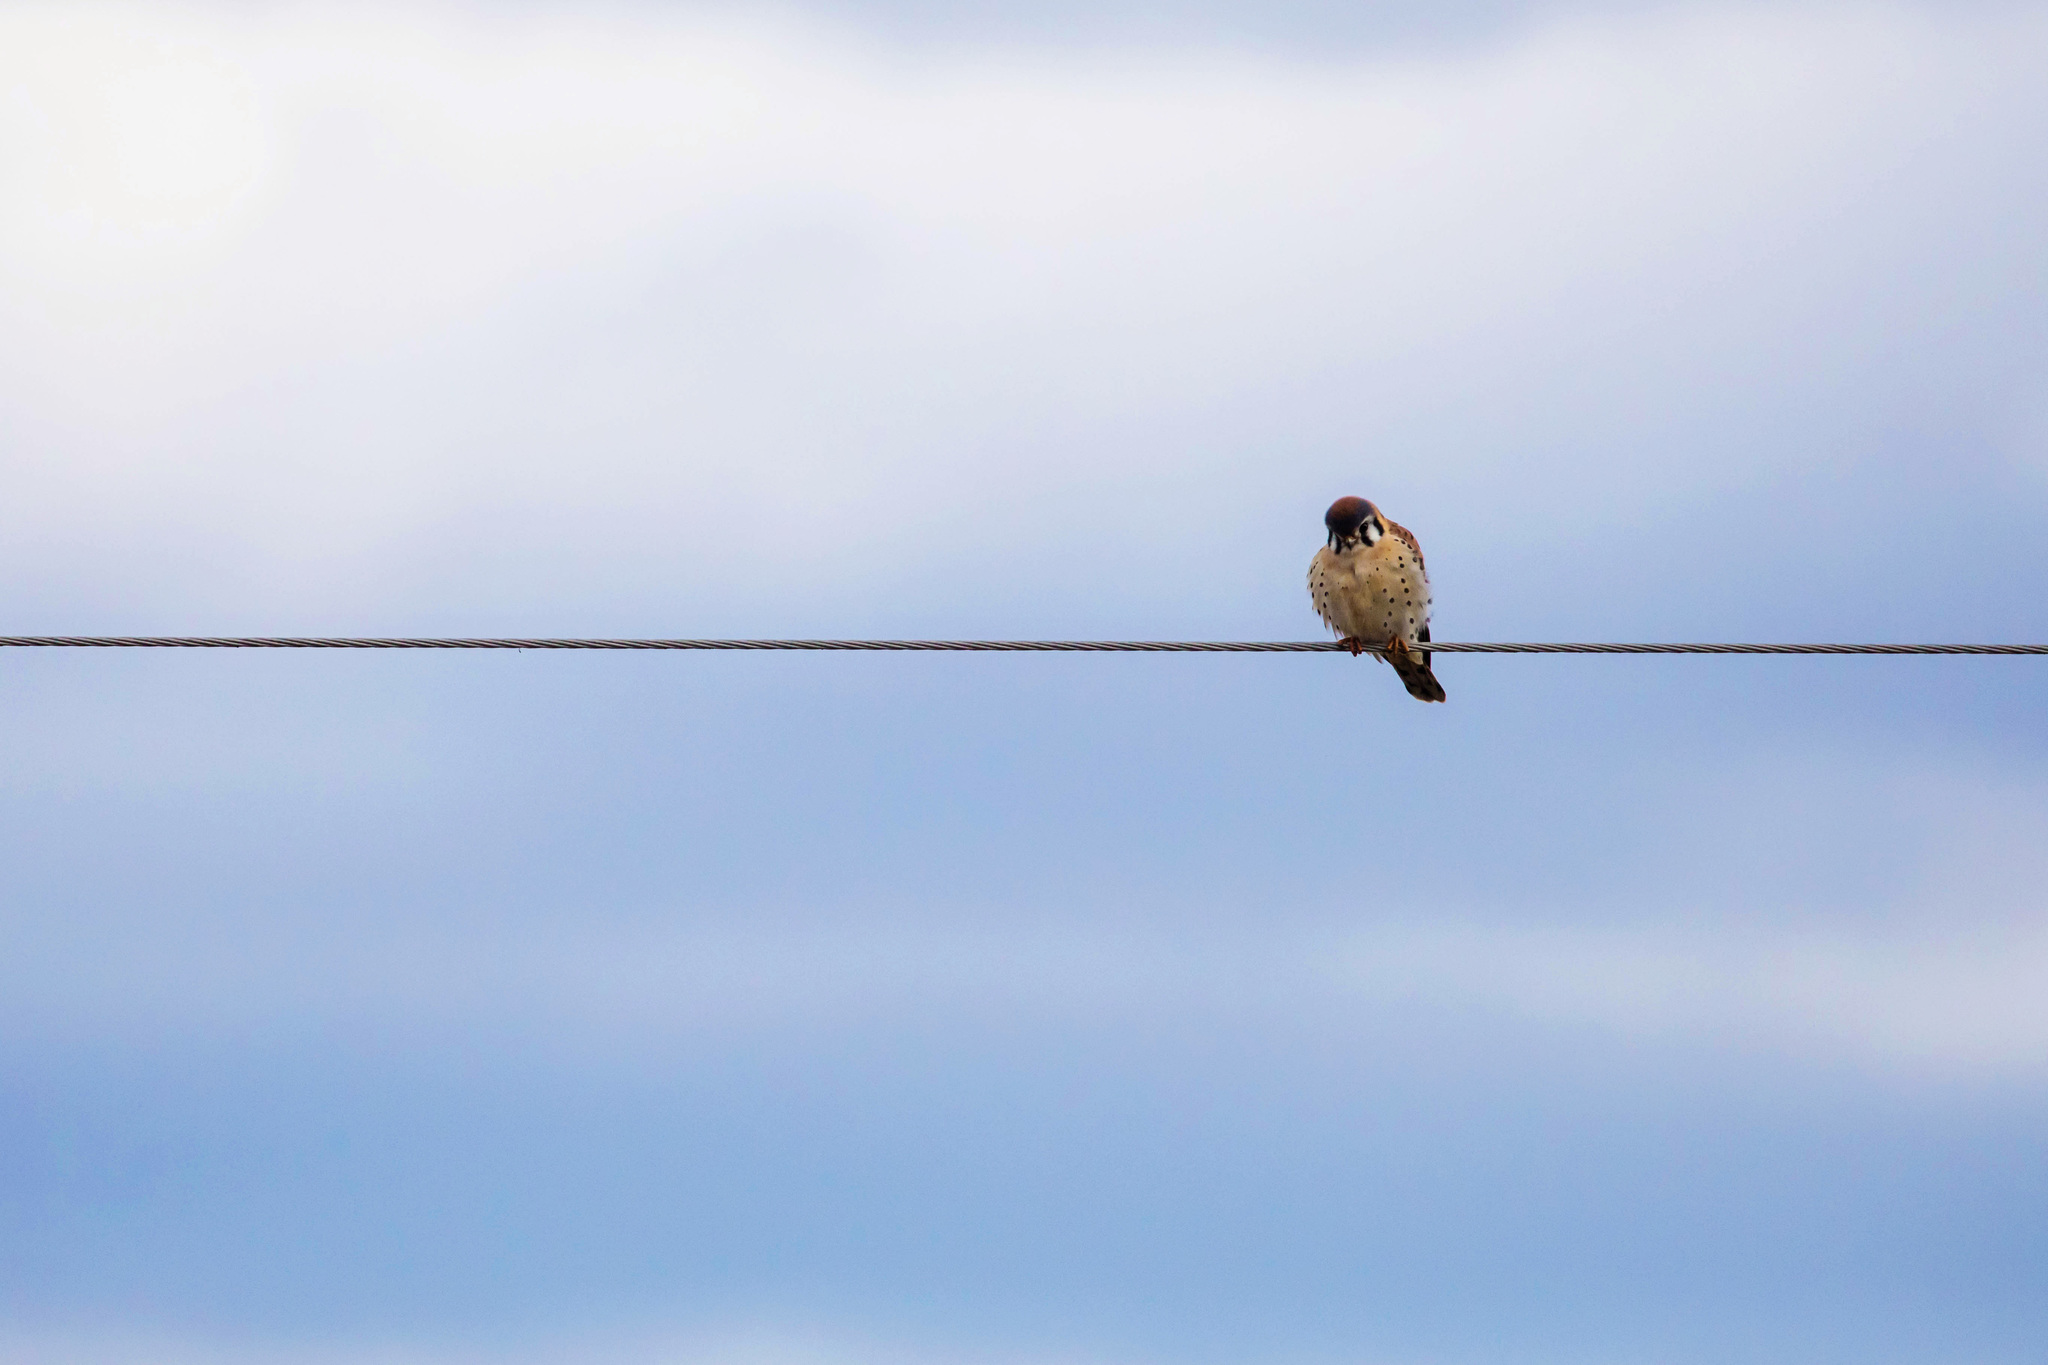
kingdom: Animalia
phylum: Chordata
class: Aves
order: Falconiformes
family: Falconidae
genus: Falco
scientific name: Falco sparverius
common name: American kestrel
